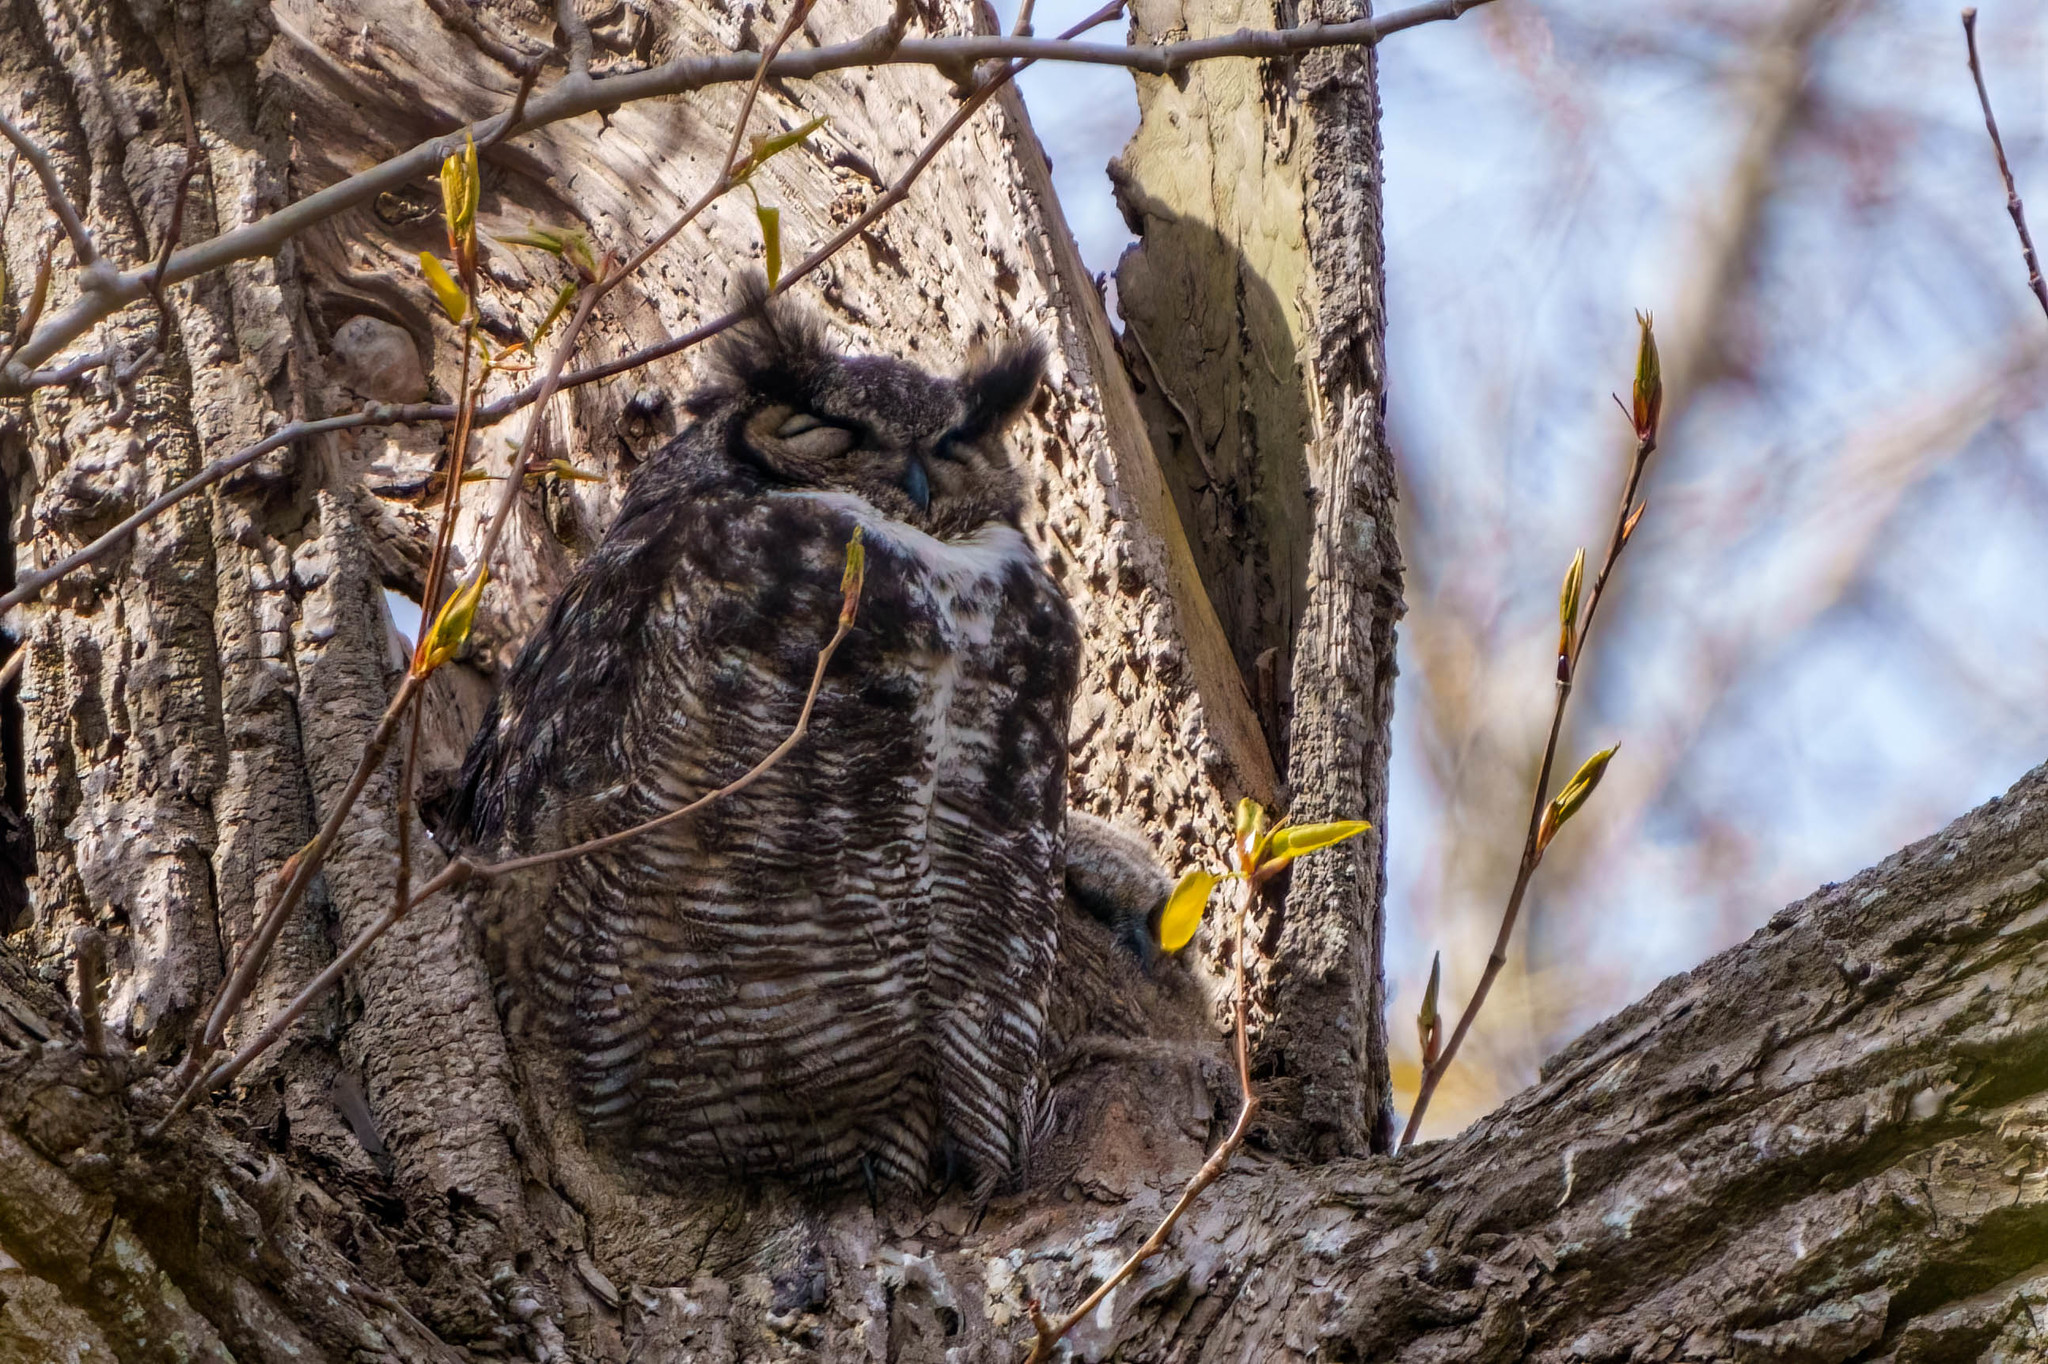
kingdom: Animalia
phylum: Chordata
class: Aves
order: Strigiformes
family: Strigidae
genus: Bubo
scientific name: Bubo virginianus
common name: Great horned owl
